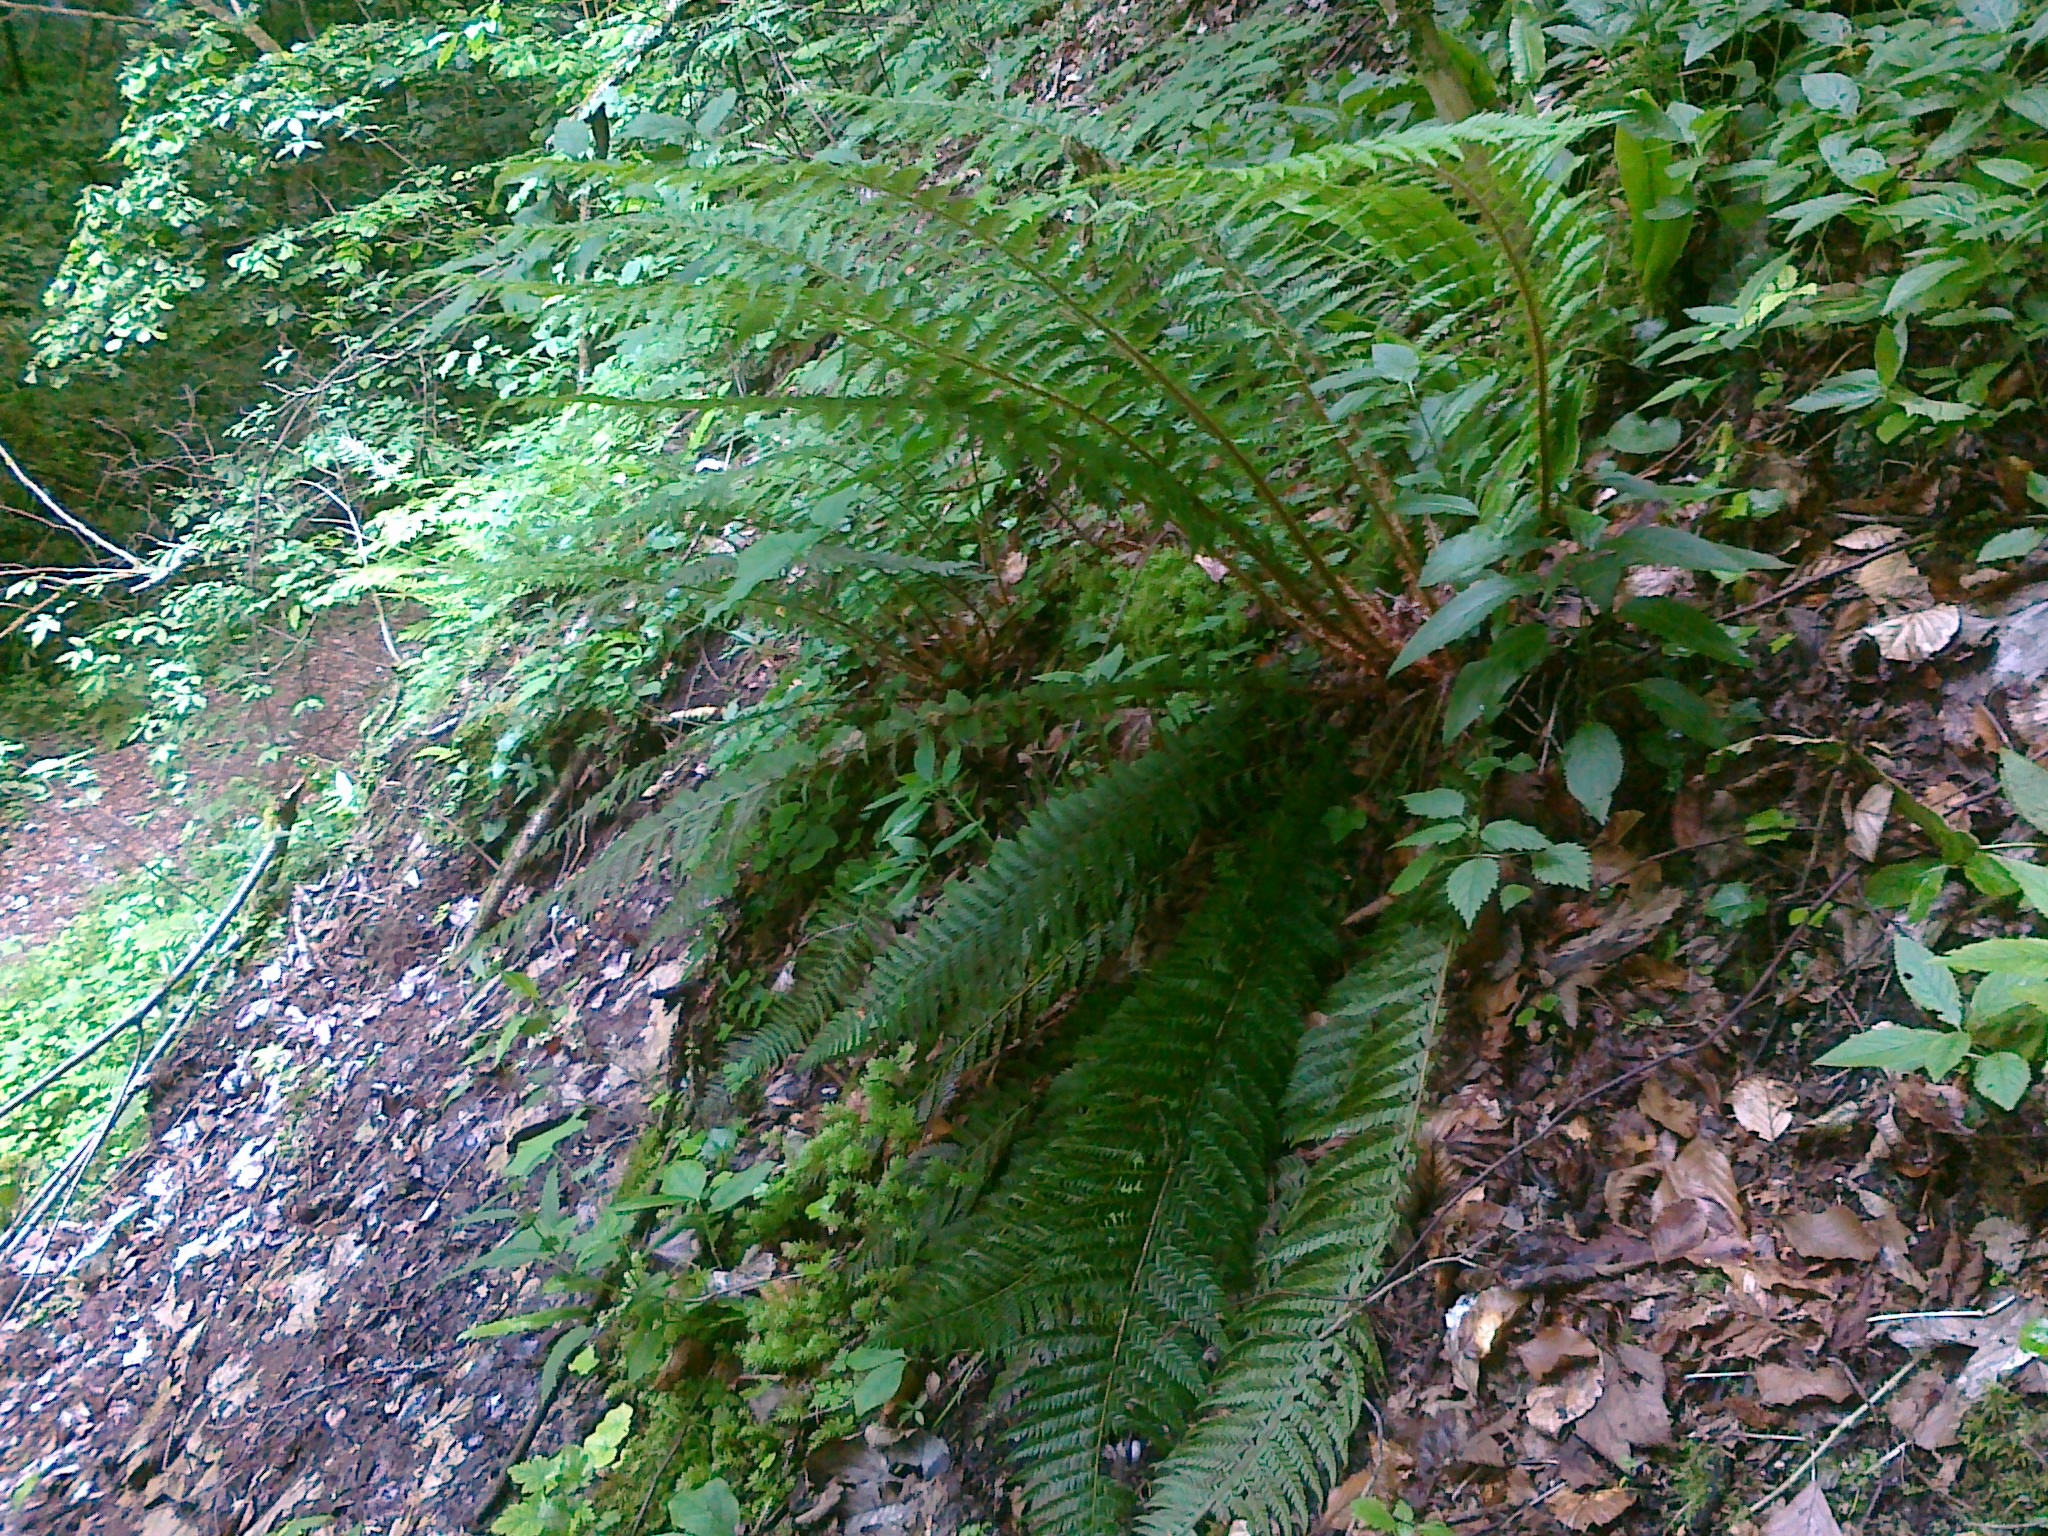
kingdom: Plantae
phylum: Tracheophyta
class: Polypodiopsida
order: Polypodiales
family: Dryopteridaceae
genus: Polystichum
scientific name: Polystichum aculeatum
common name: Hard shield-fern
